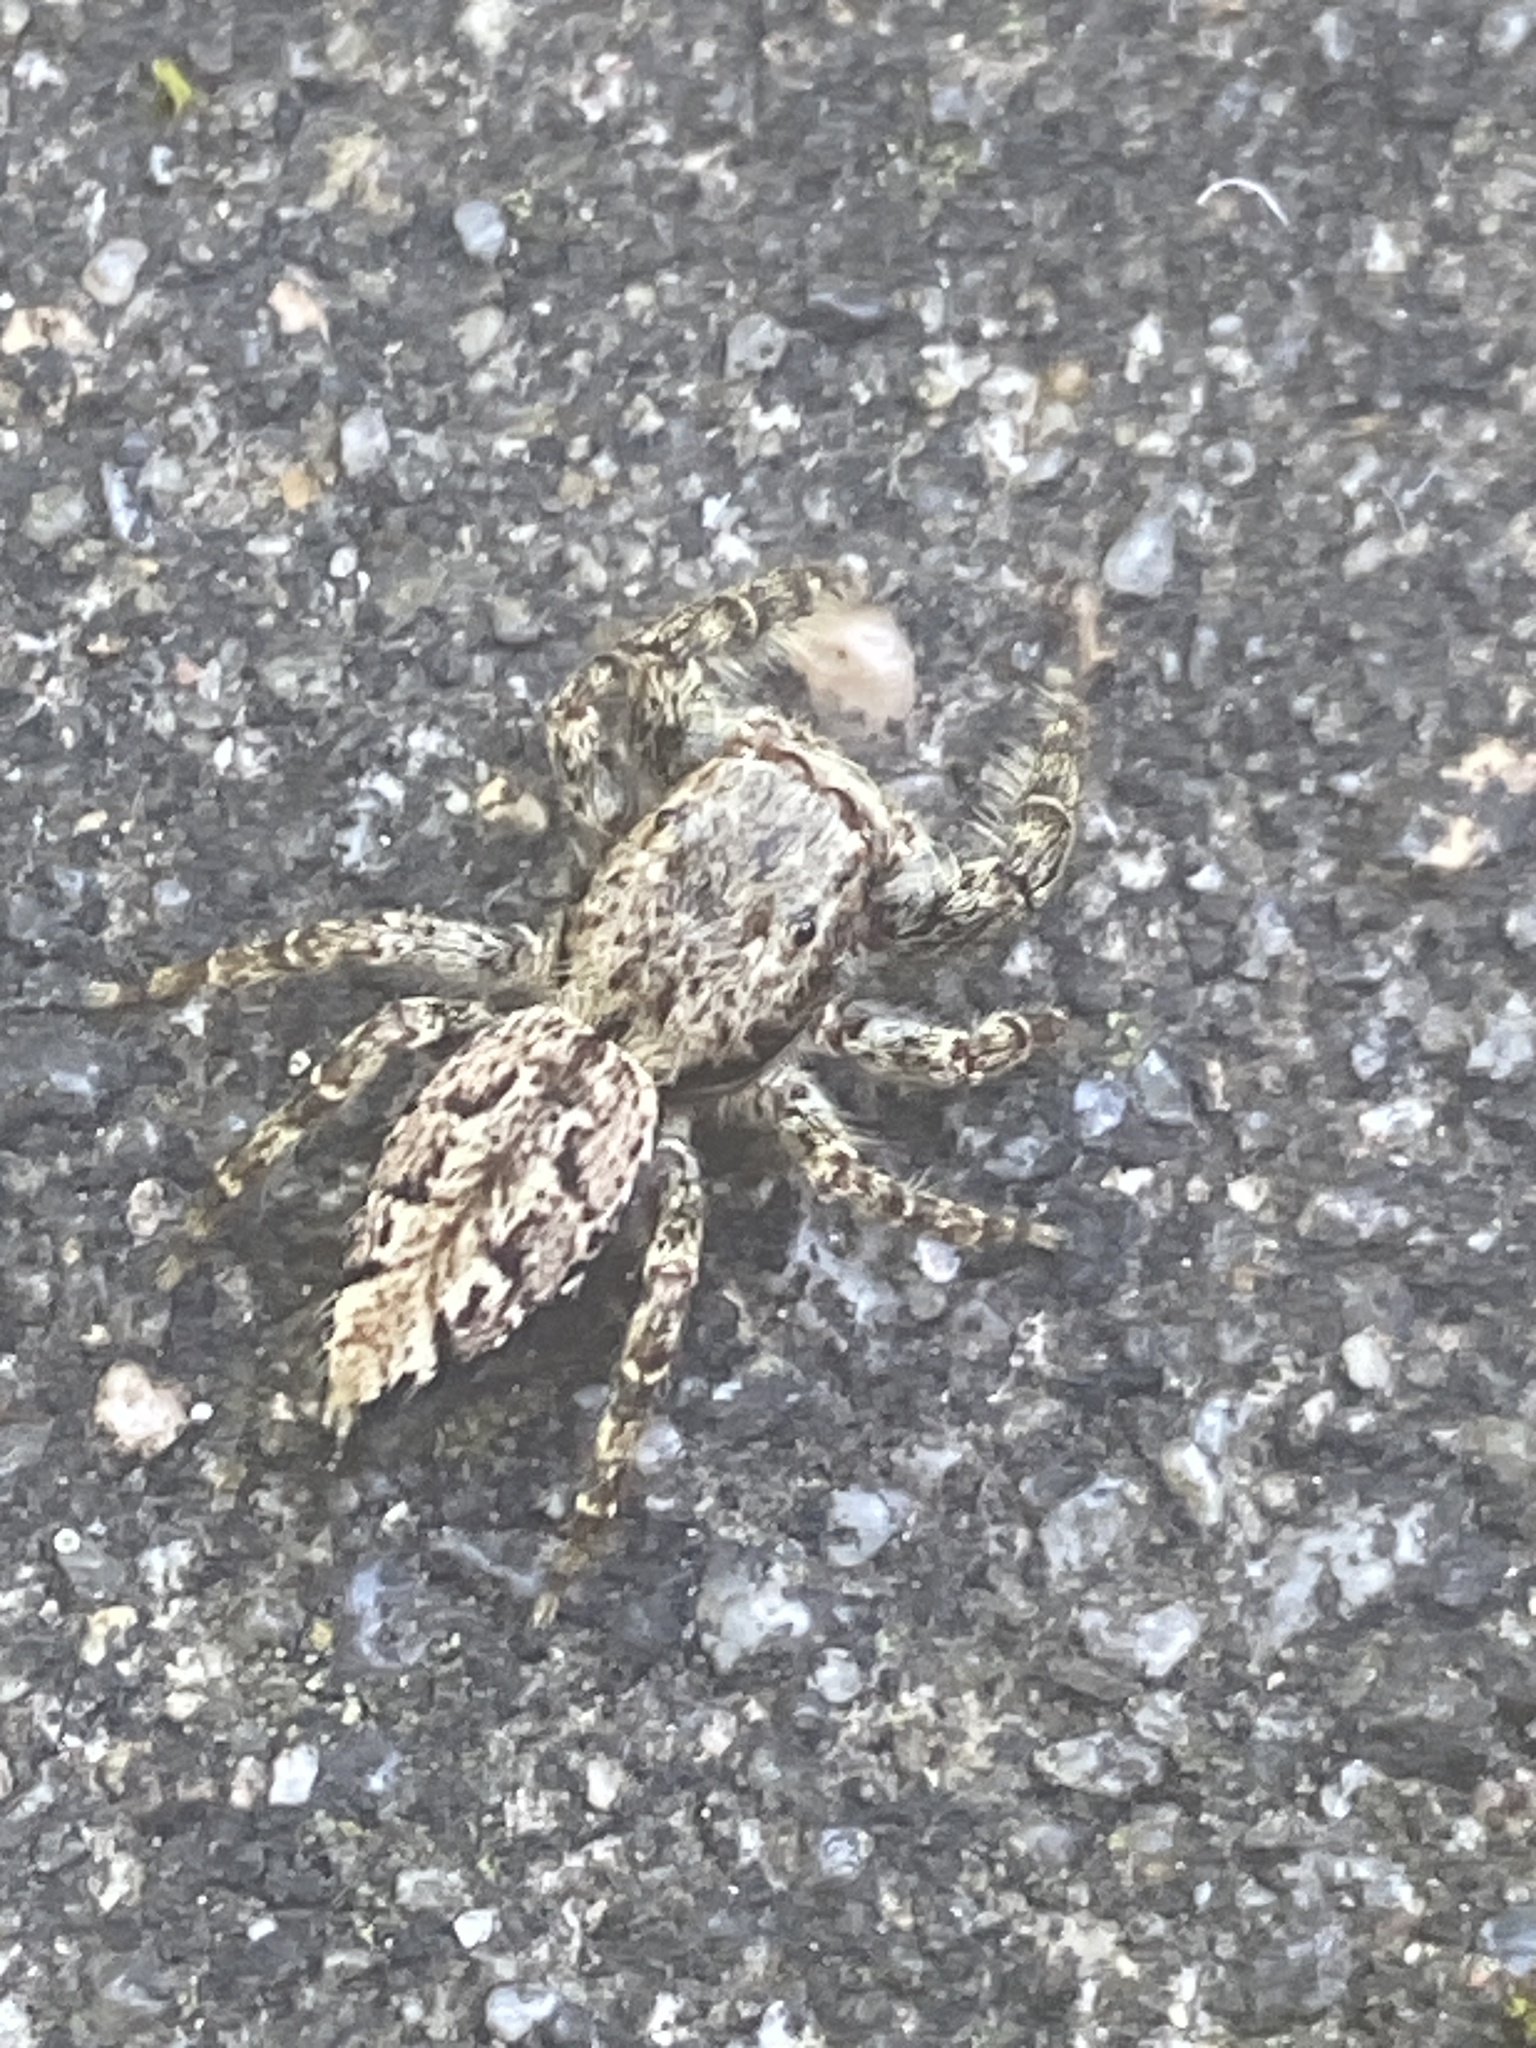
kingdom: Animalia
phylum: Arthropoda
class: Arachnida
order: Araneae
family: Salticidae
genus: Marpissa
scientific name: Marpissa muscosa
